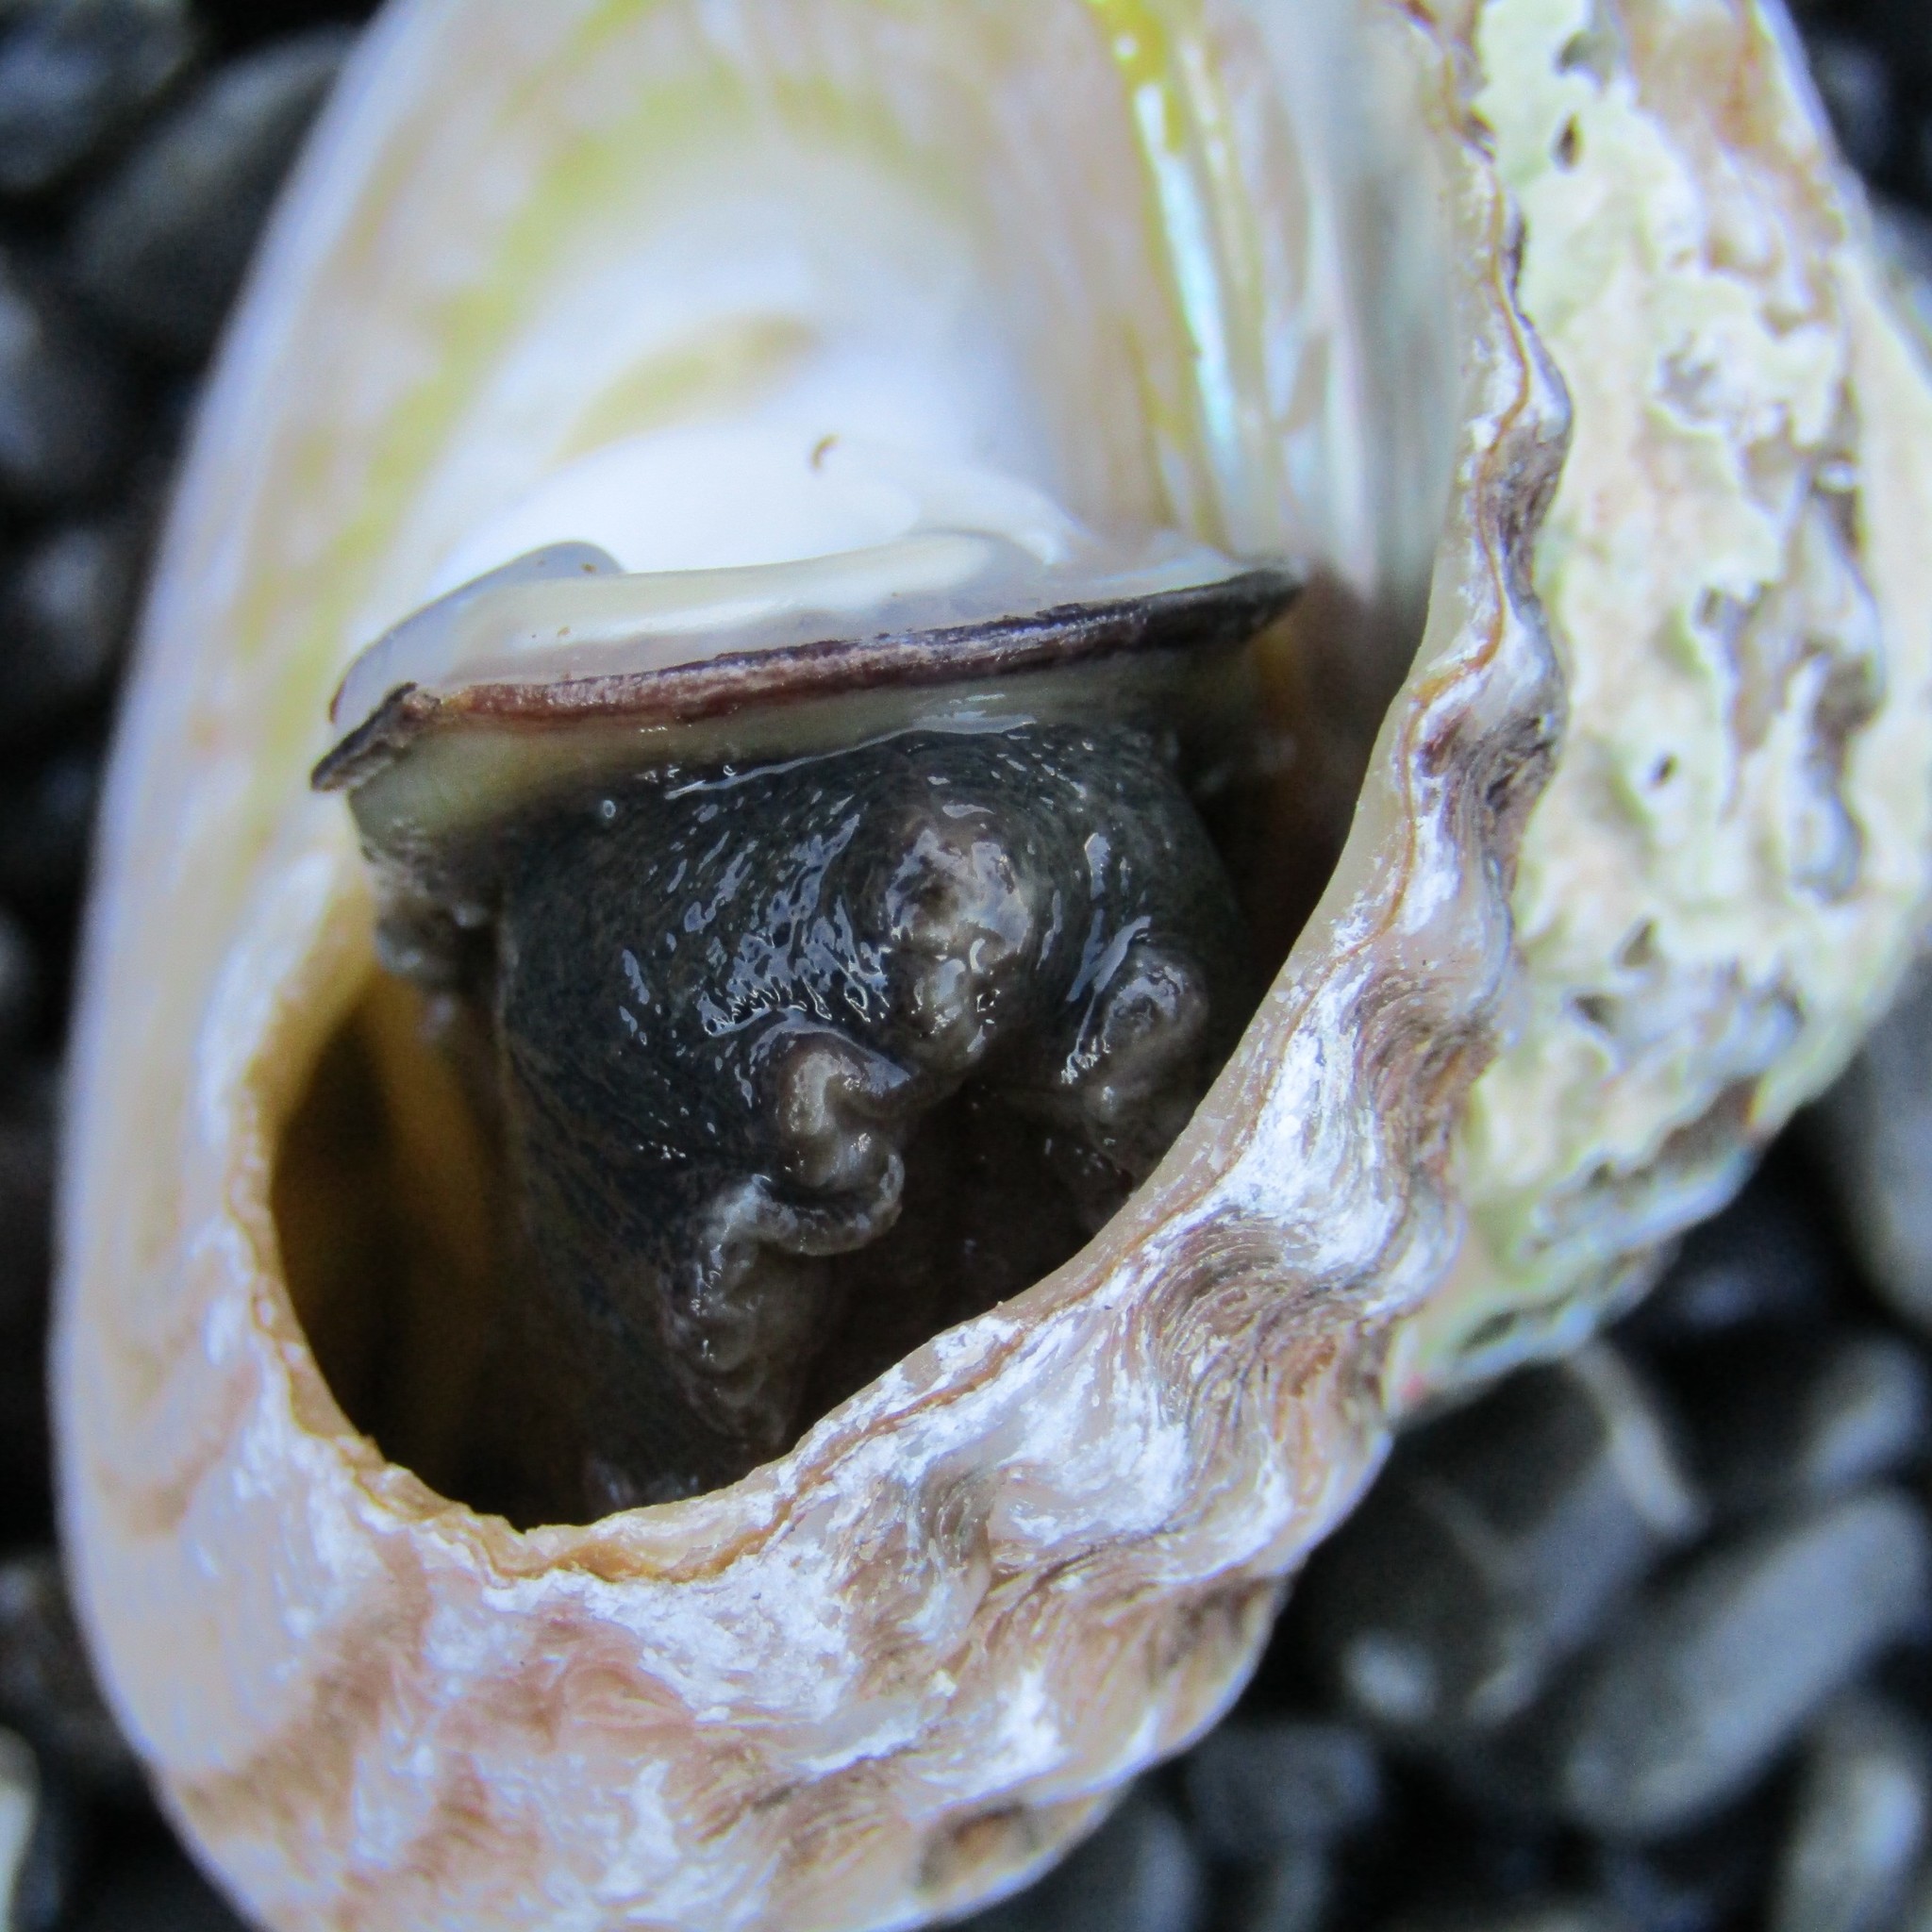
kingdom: Animalia
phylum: Mollusca
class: Gastropoda
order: Trochida
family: Turbinidae
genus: Cookia
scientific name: Cookia sulcata
